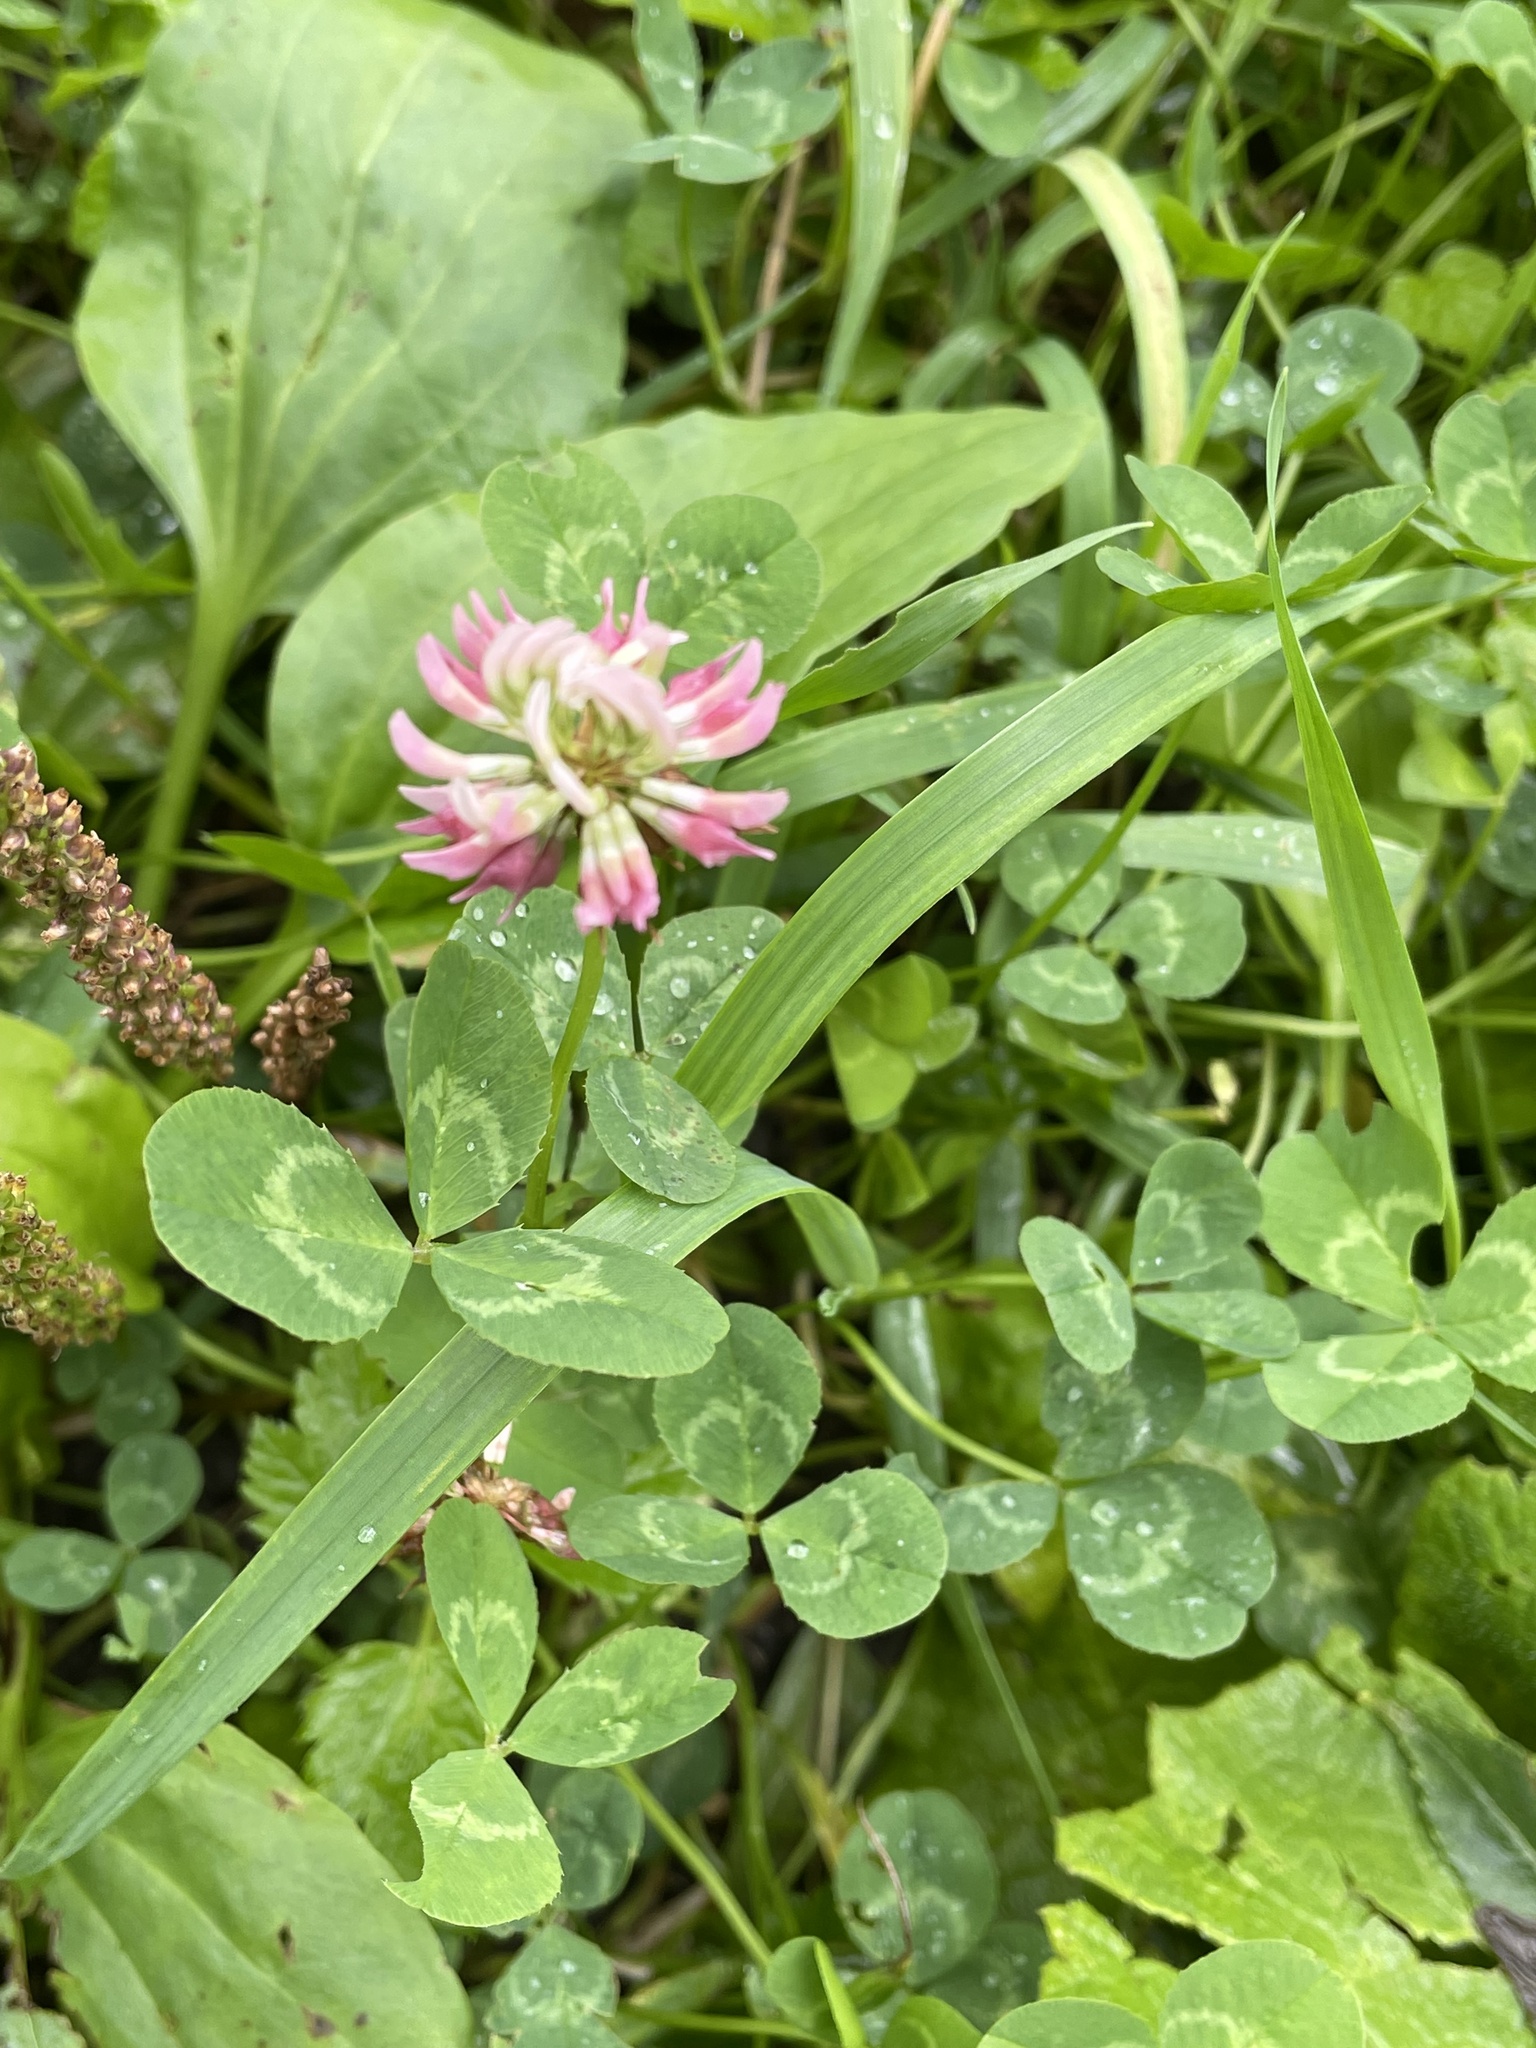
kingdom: Plantae
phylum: Tracheophyta
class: Magnoliopsida
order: Fabales
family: Fabaceae
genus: Trifolium
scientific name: Trifolium hybridum
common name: Alsike clover
